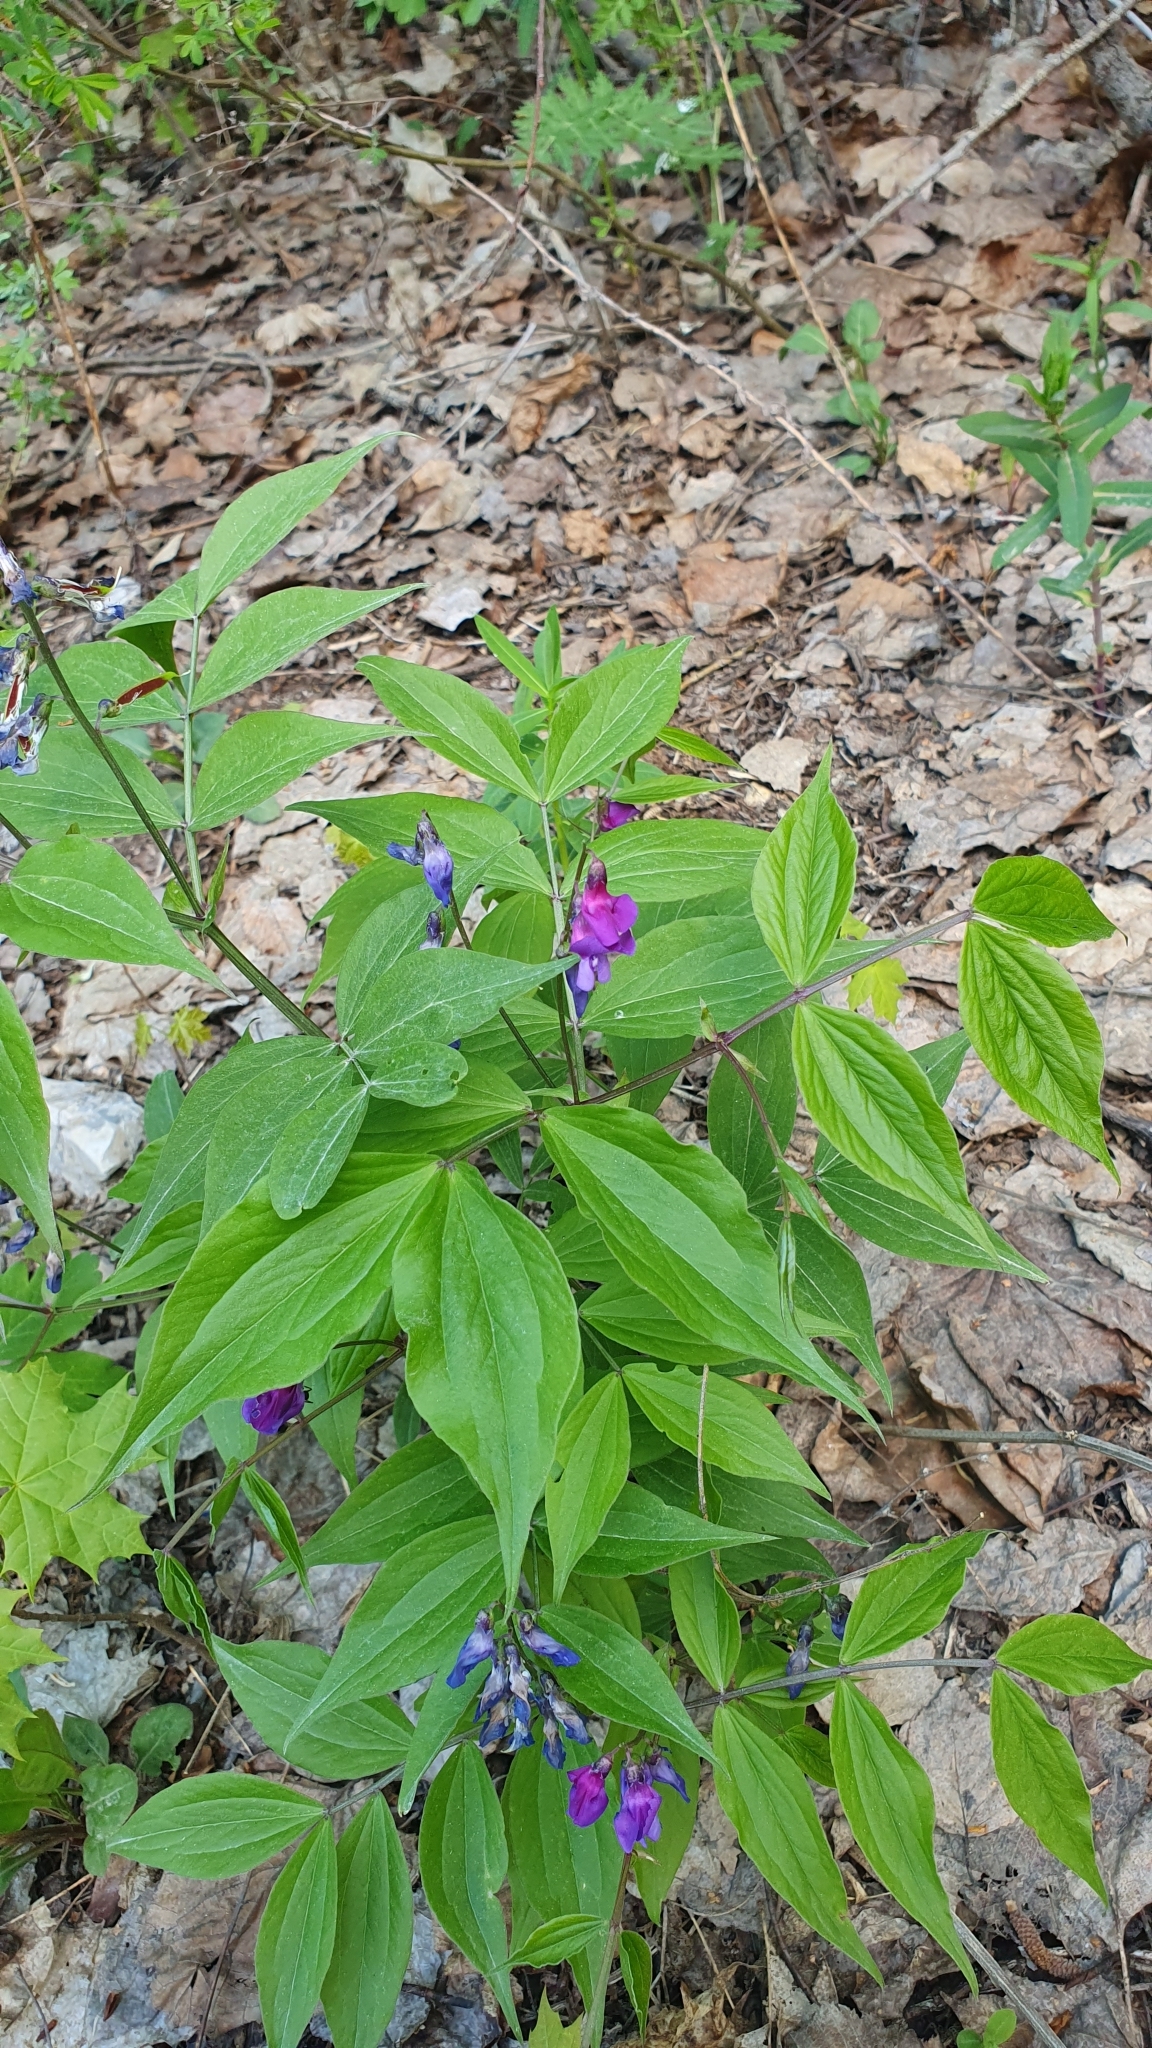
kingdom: Plantae
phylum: Tracheophyta
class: Magnoliopsida
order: Fabales
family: Fabaceae
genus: Lathyrus
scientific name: Lathyrus vernus
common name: Spring pea
